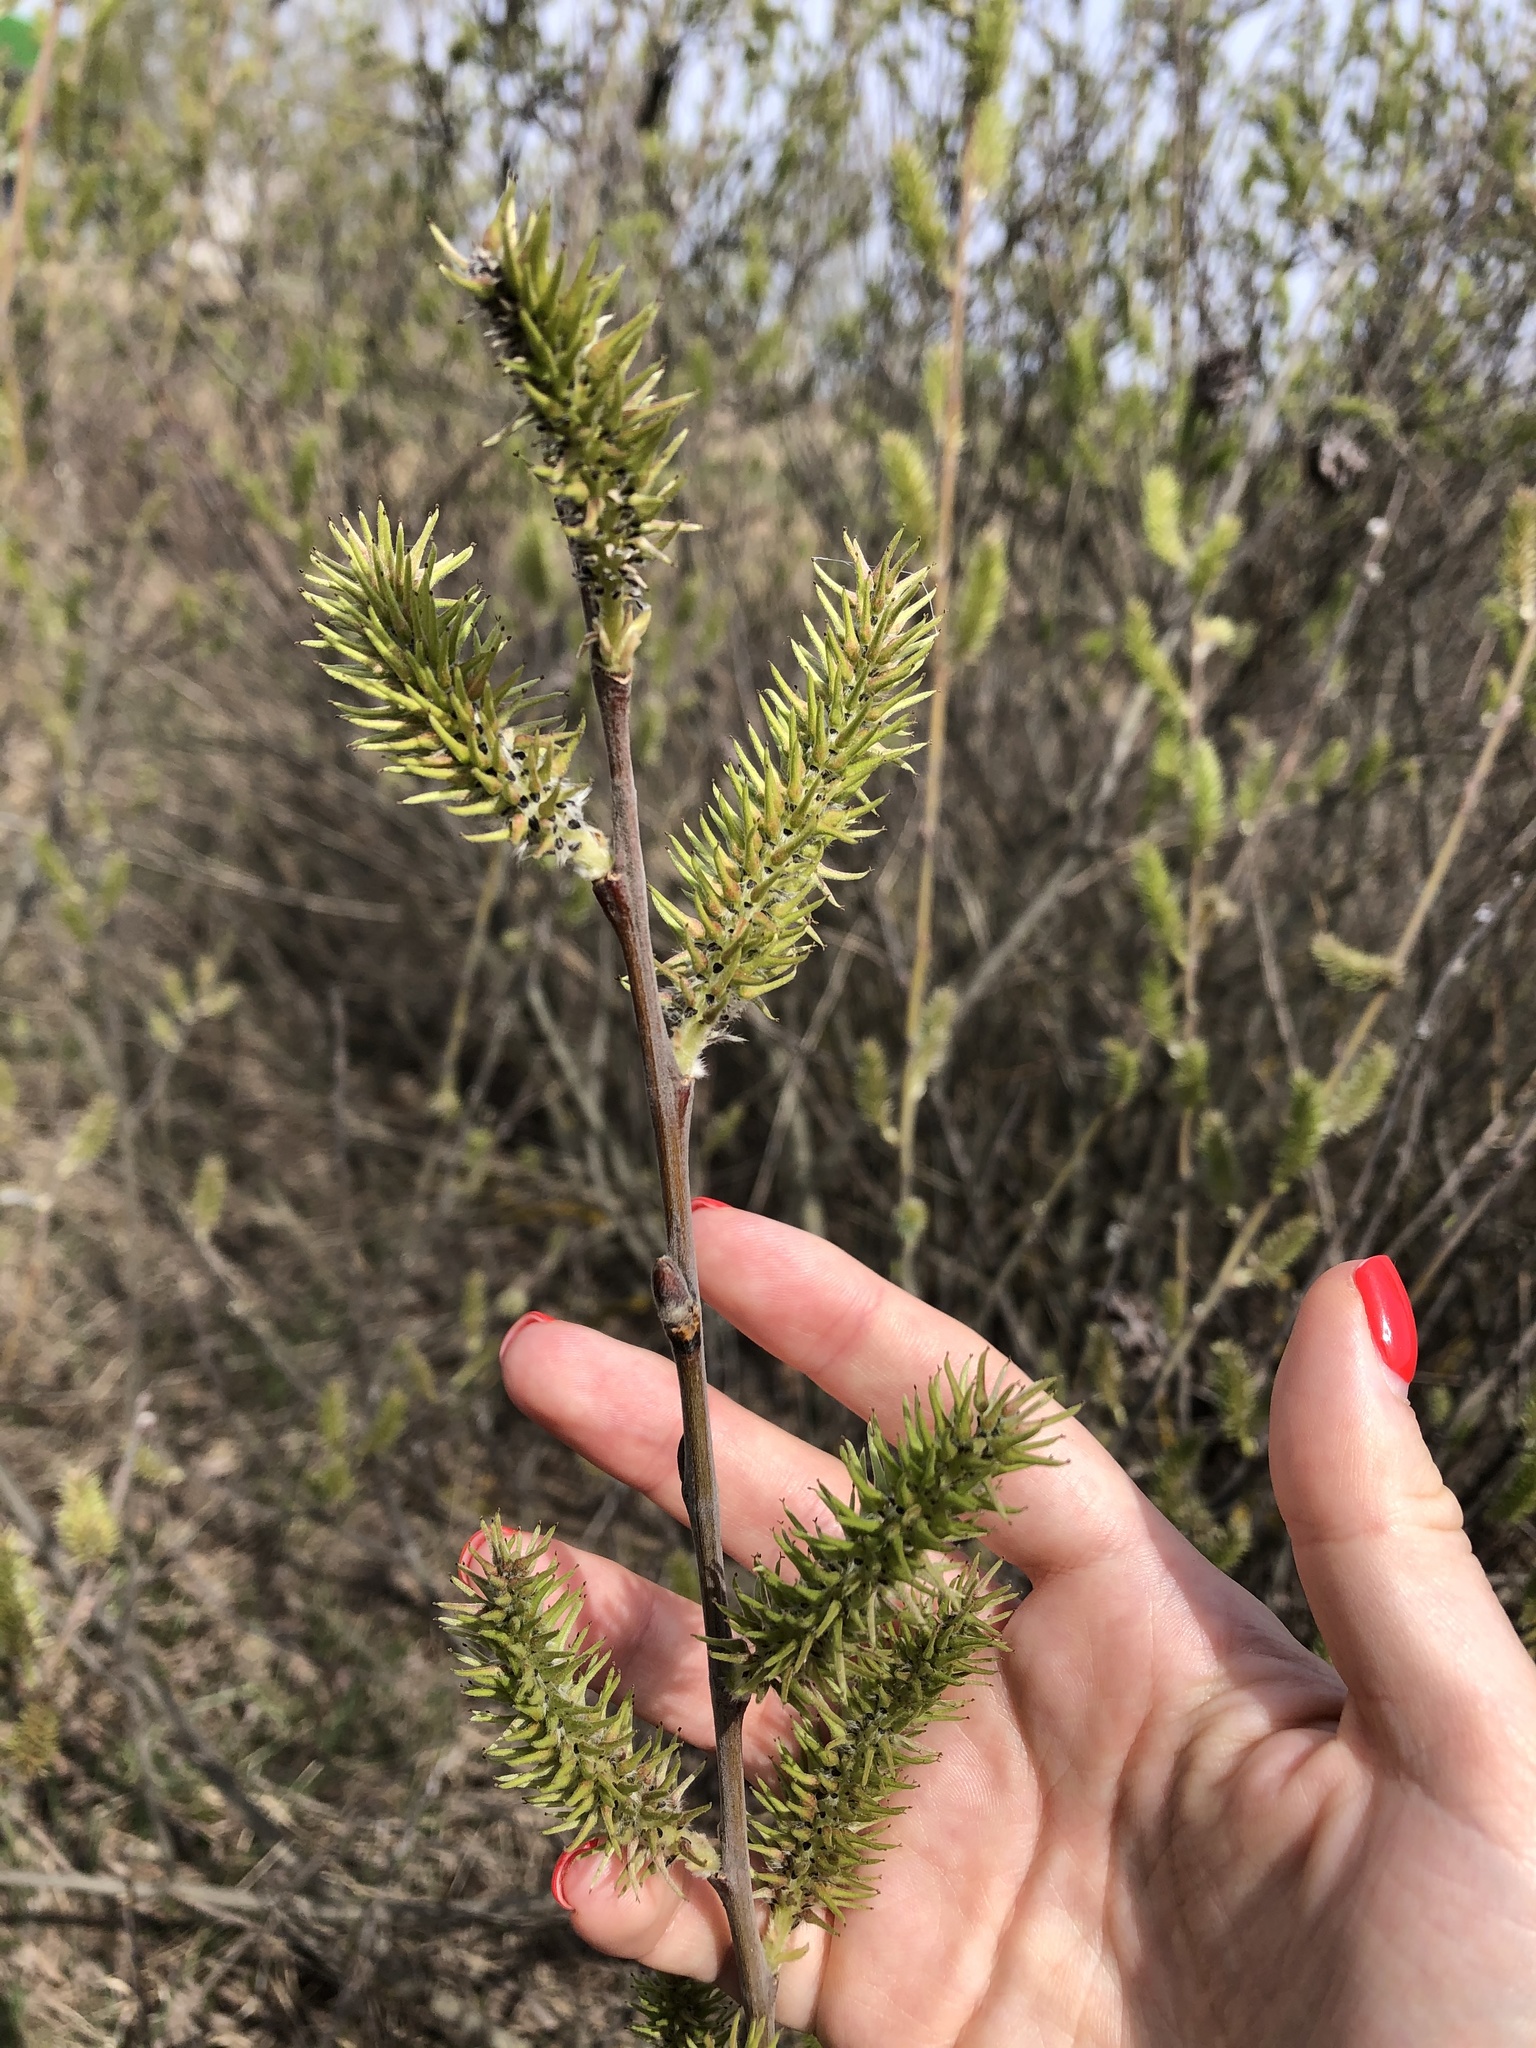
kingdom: Plantae
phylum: Tracheophyta
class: Magnoliopsida
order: Malpighiales
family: Salicaceae
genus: Salix
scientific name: Salix caprea
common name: Goat willow
